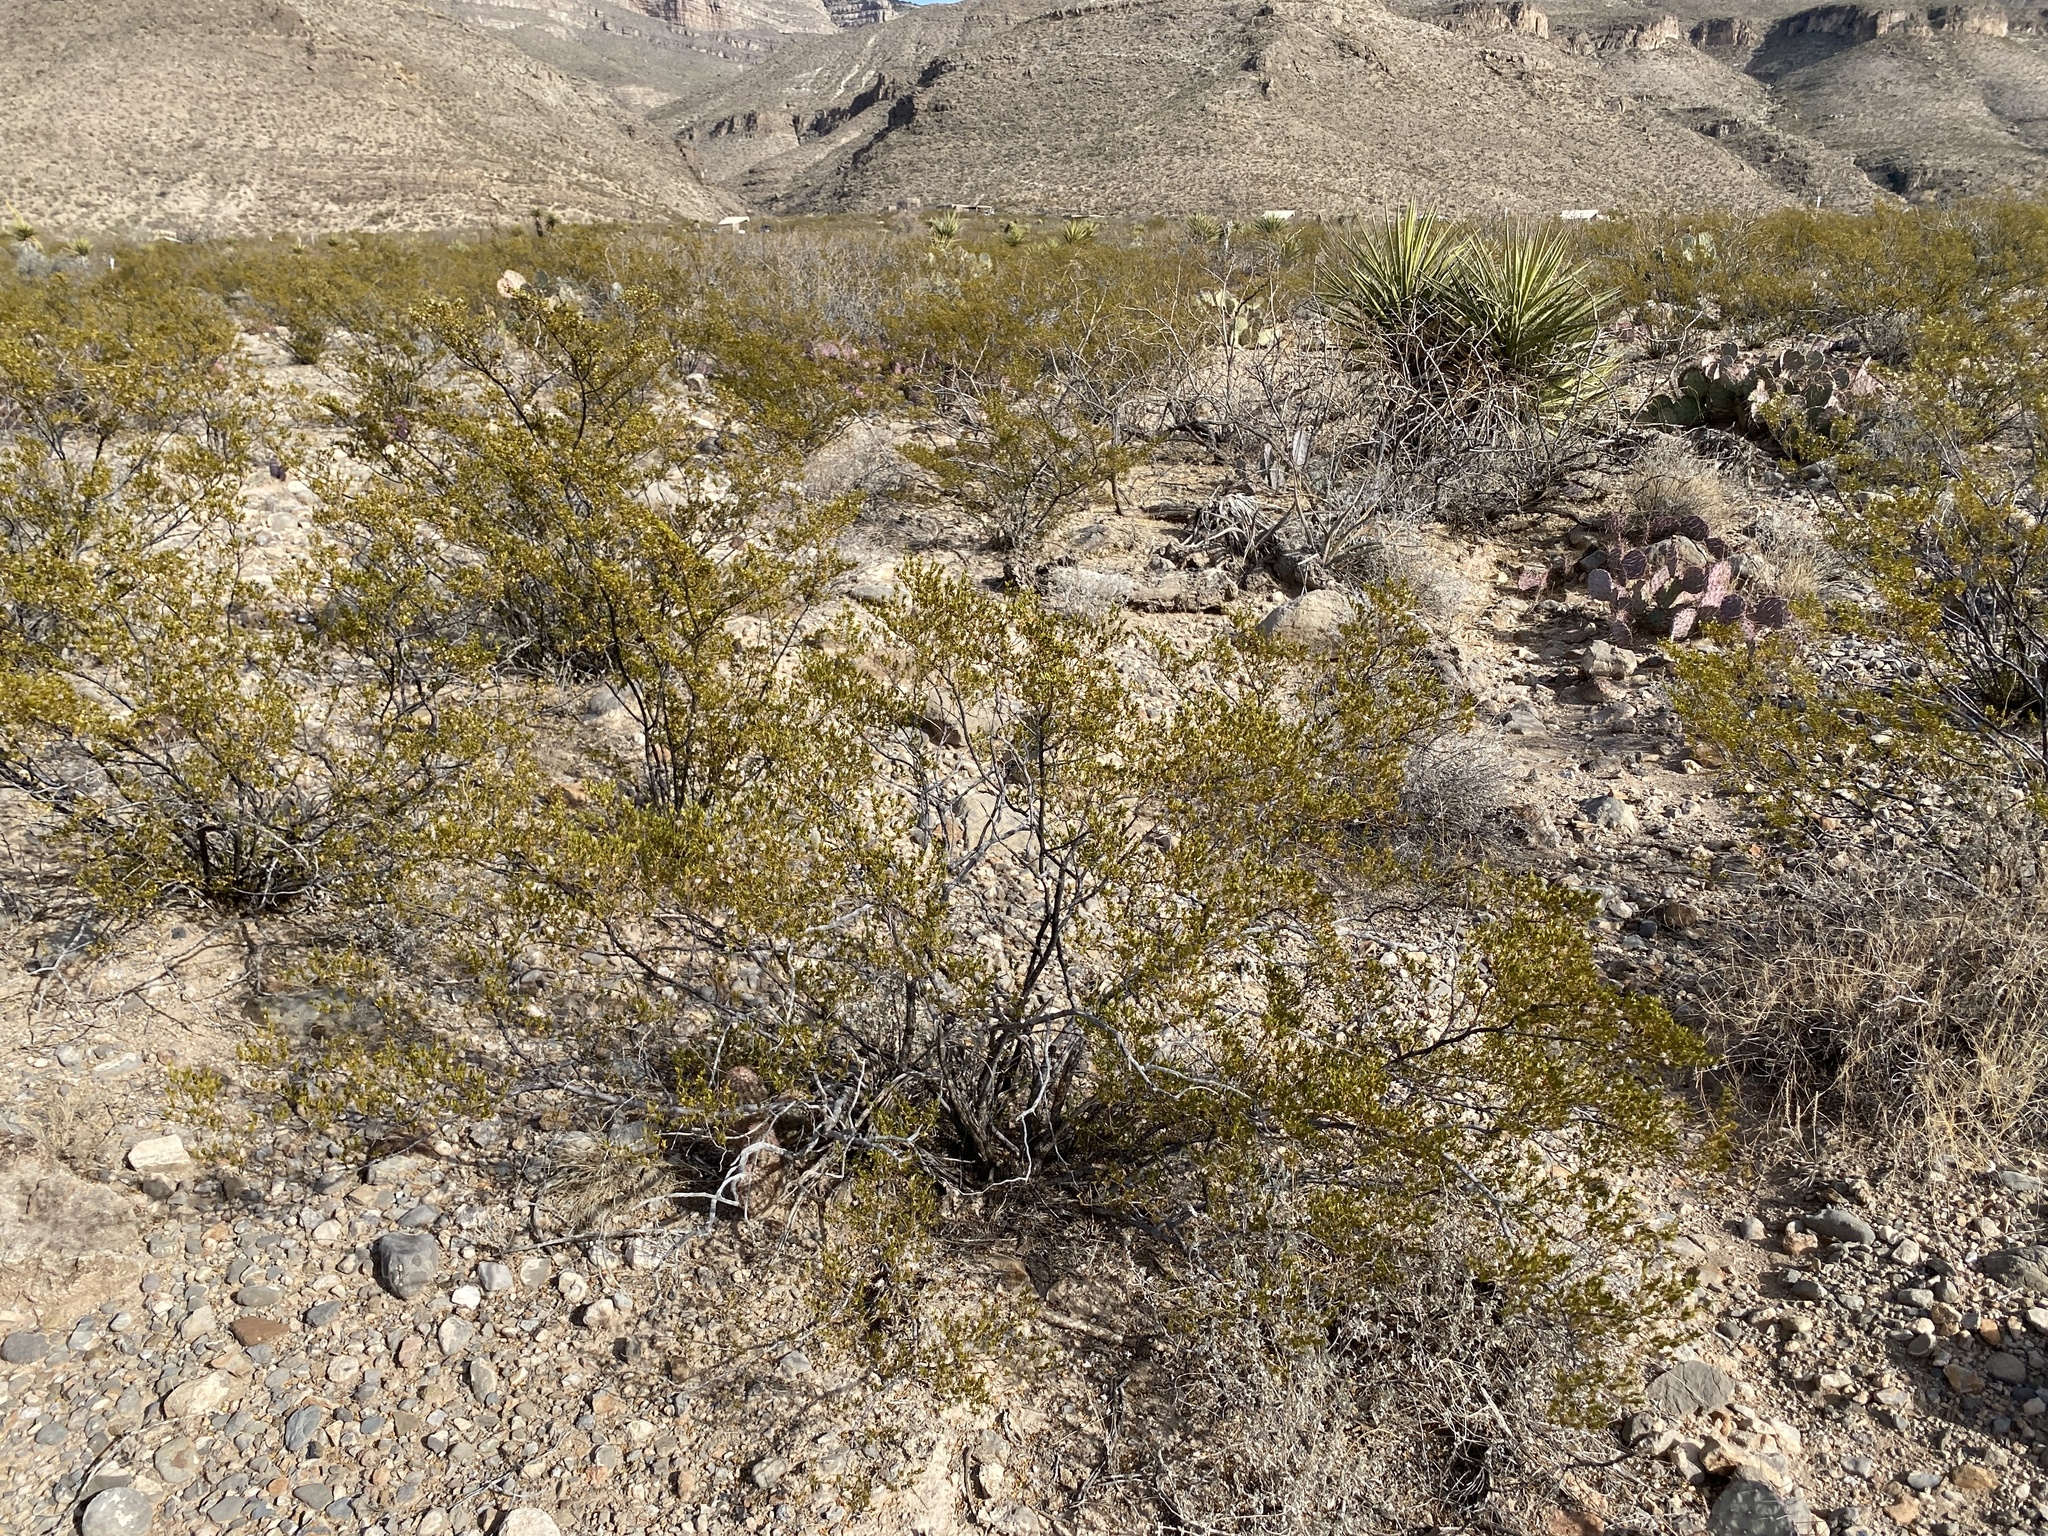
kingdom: Plantae
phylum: Tracheophyta
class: Magnoliopsida
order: Zygophyllales
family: Zygophyllaceae
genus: Larrea
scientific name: Larrea tridentata
